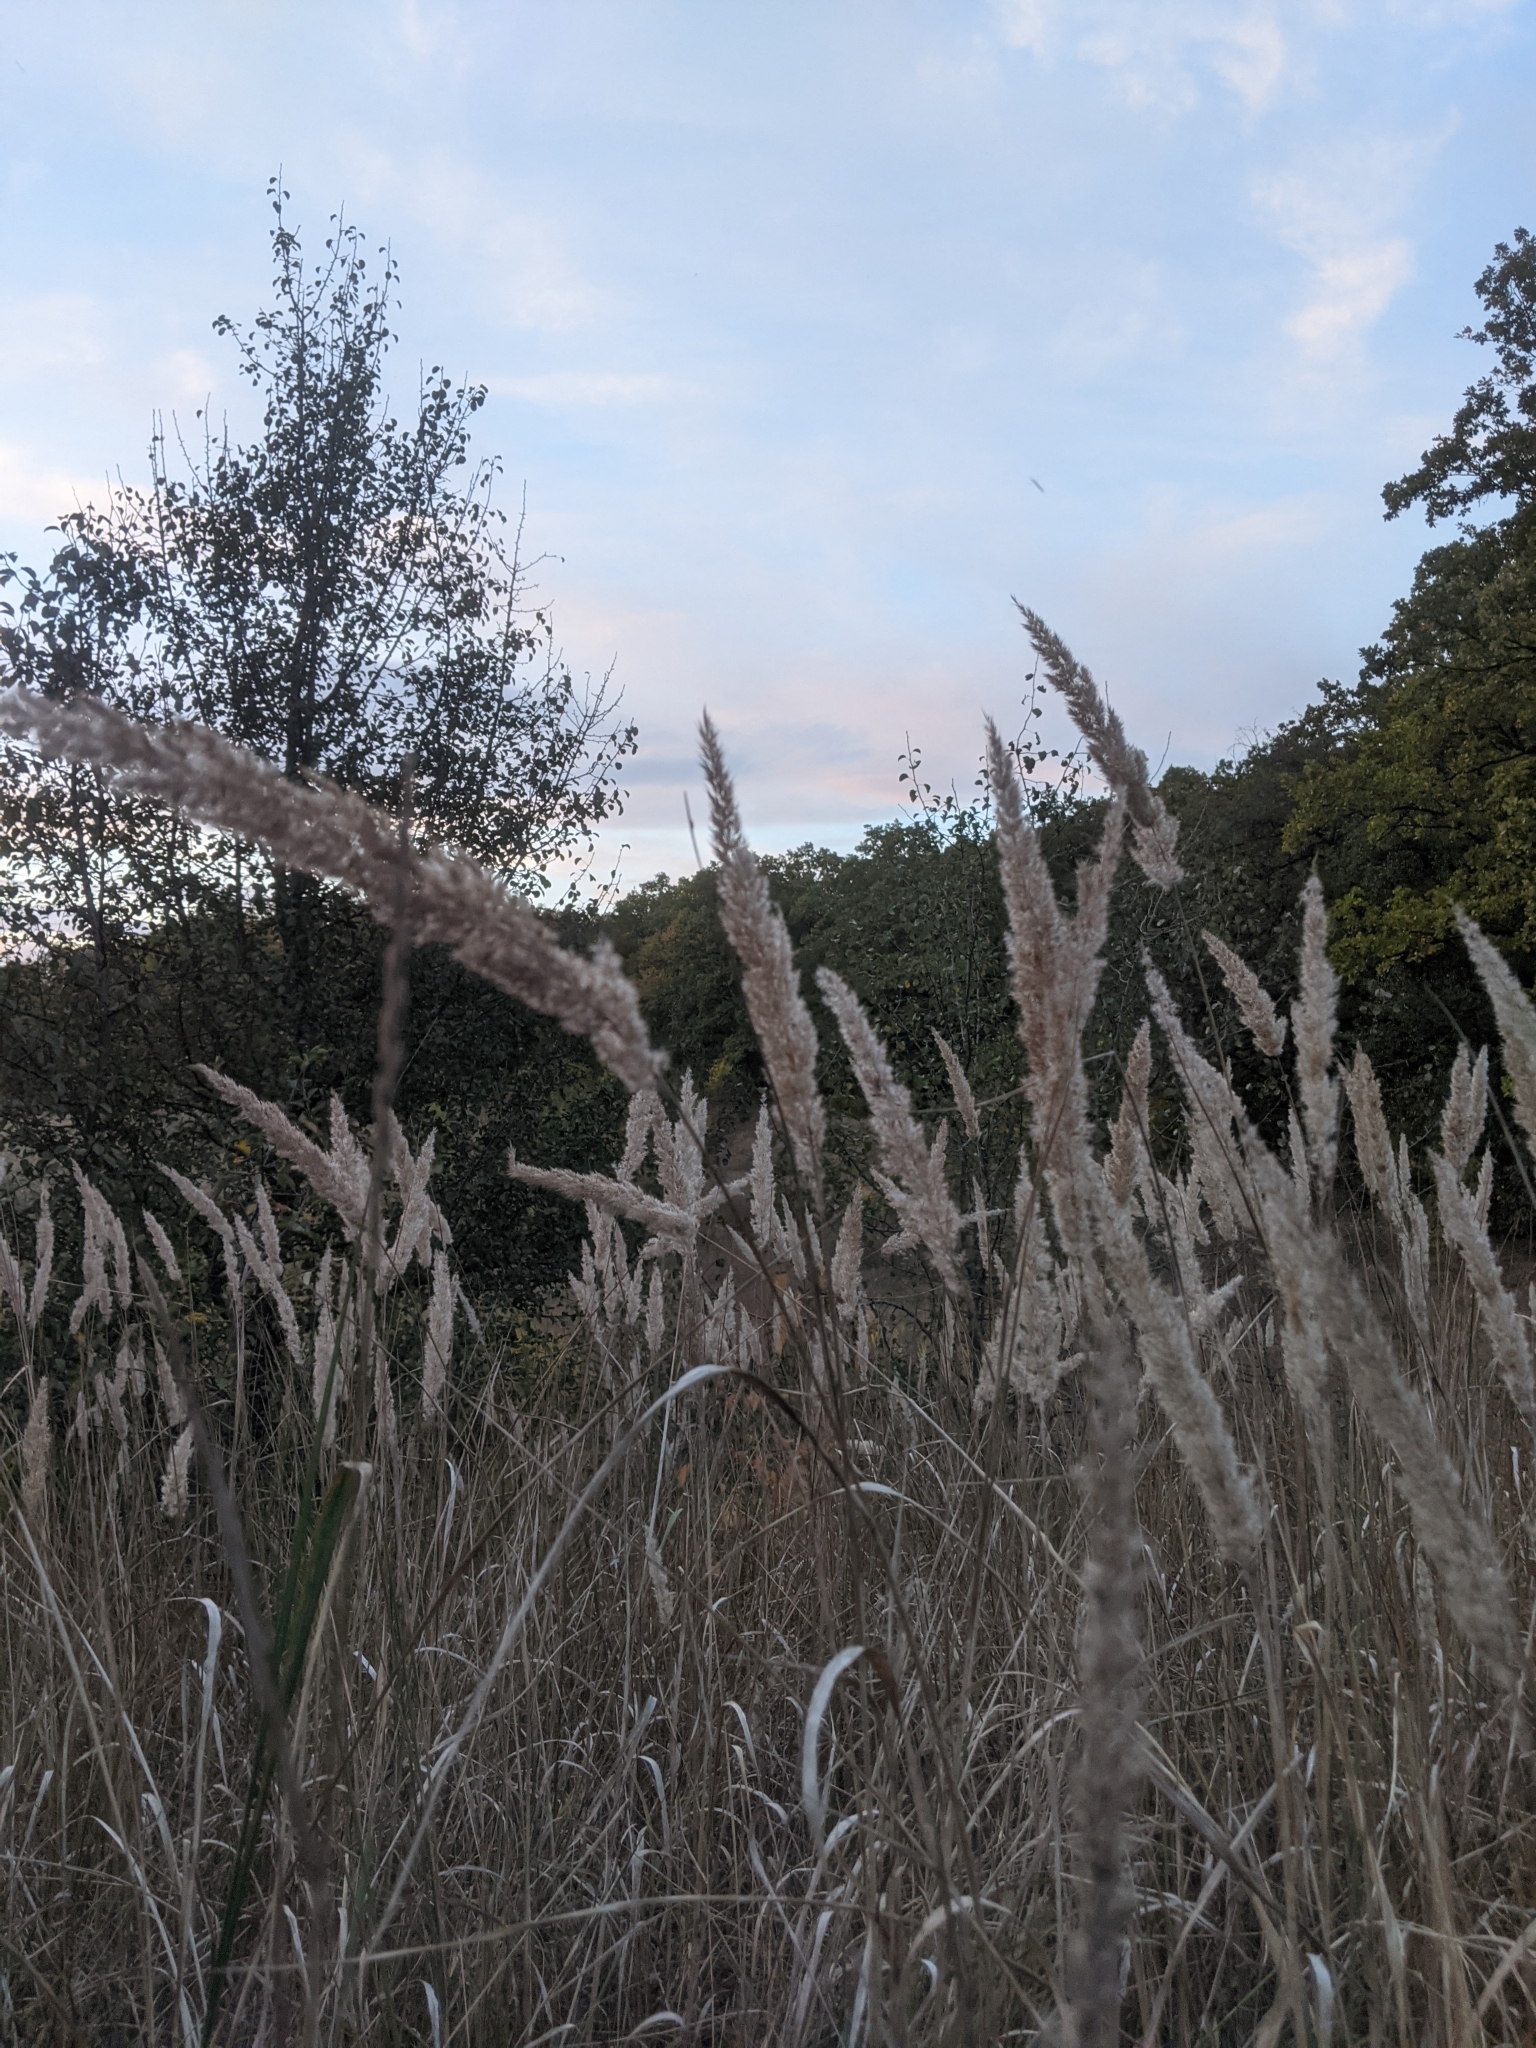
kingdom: Plantae
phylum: Tracheophyta
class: Liliopsida
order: Poales
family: Poaceae
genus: Calamagrostis
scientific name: Calamagrostis epigejos
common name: Wood small-reed
